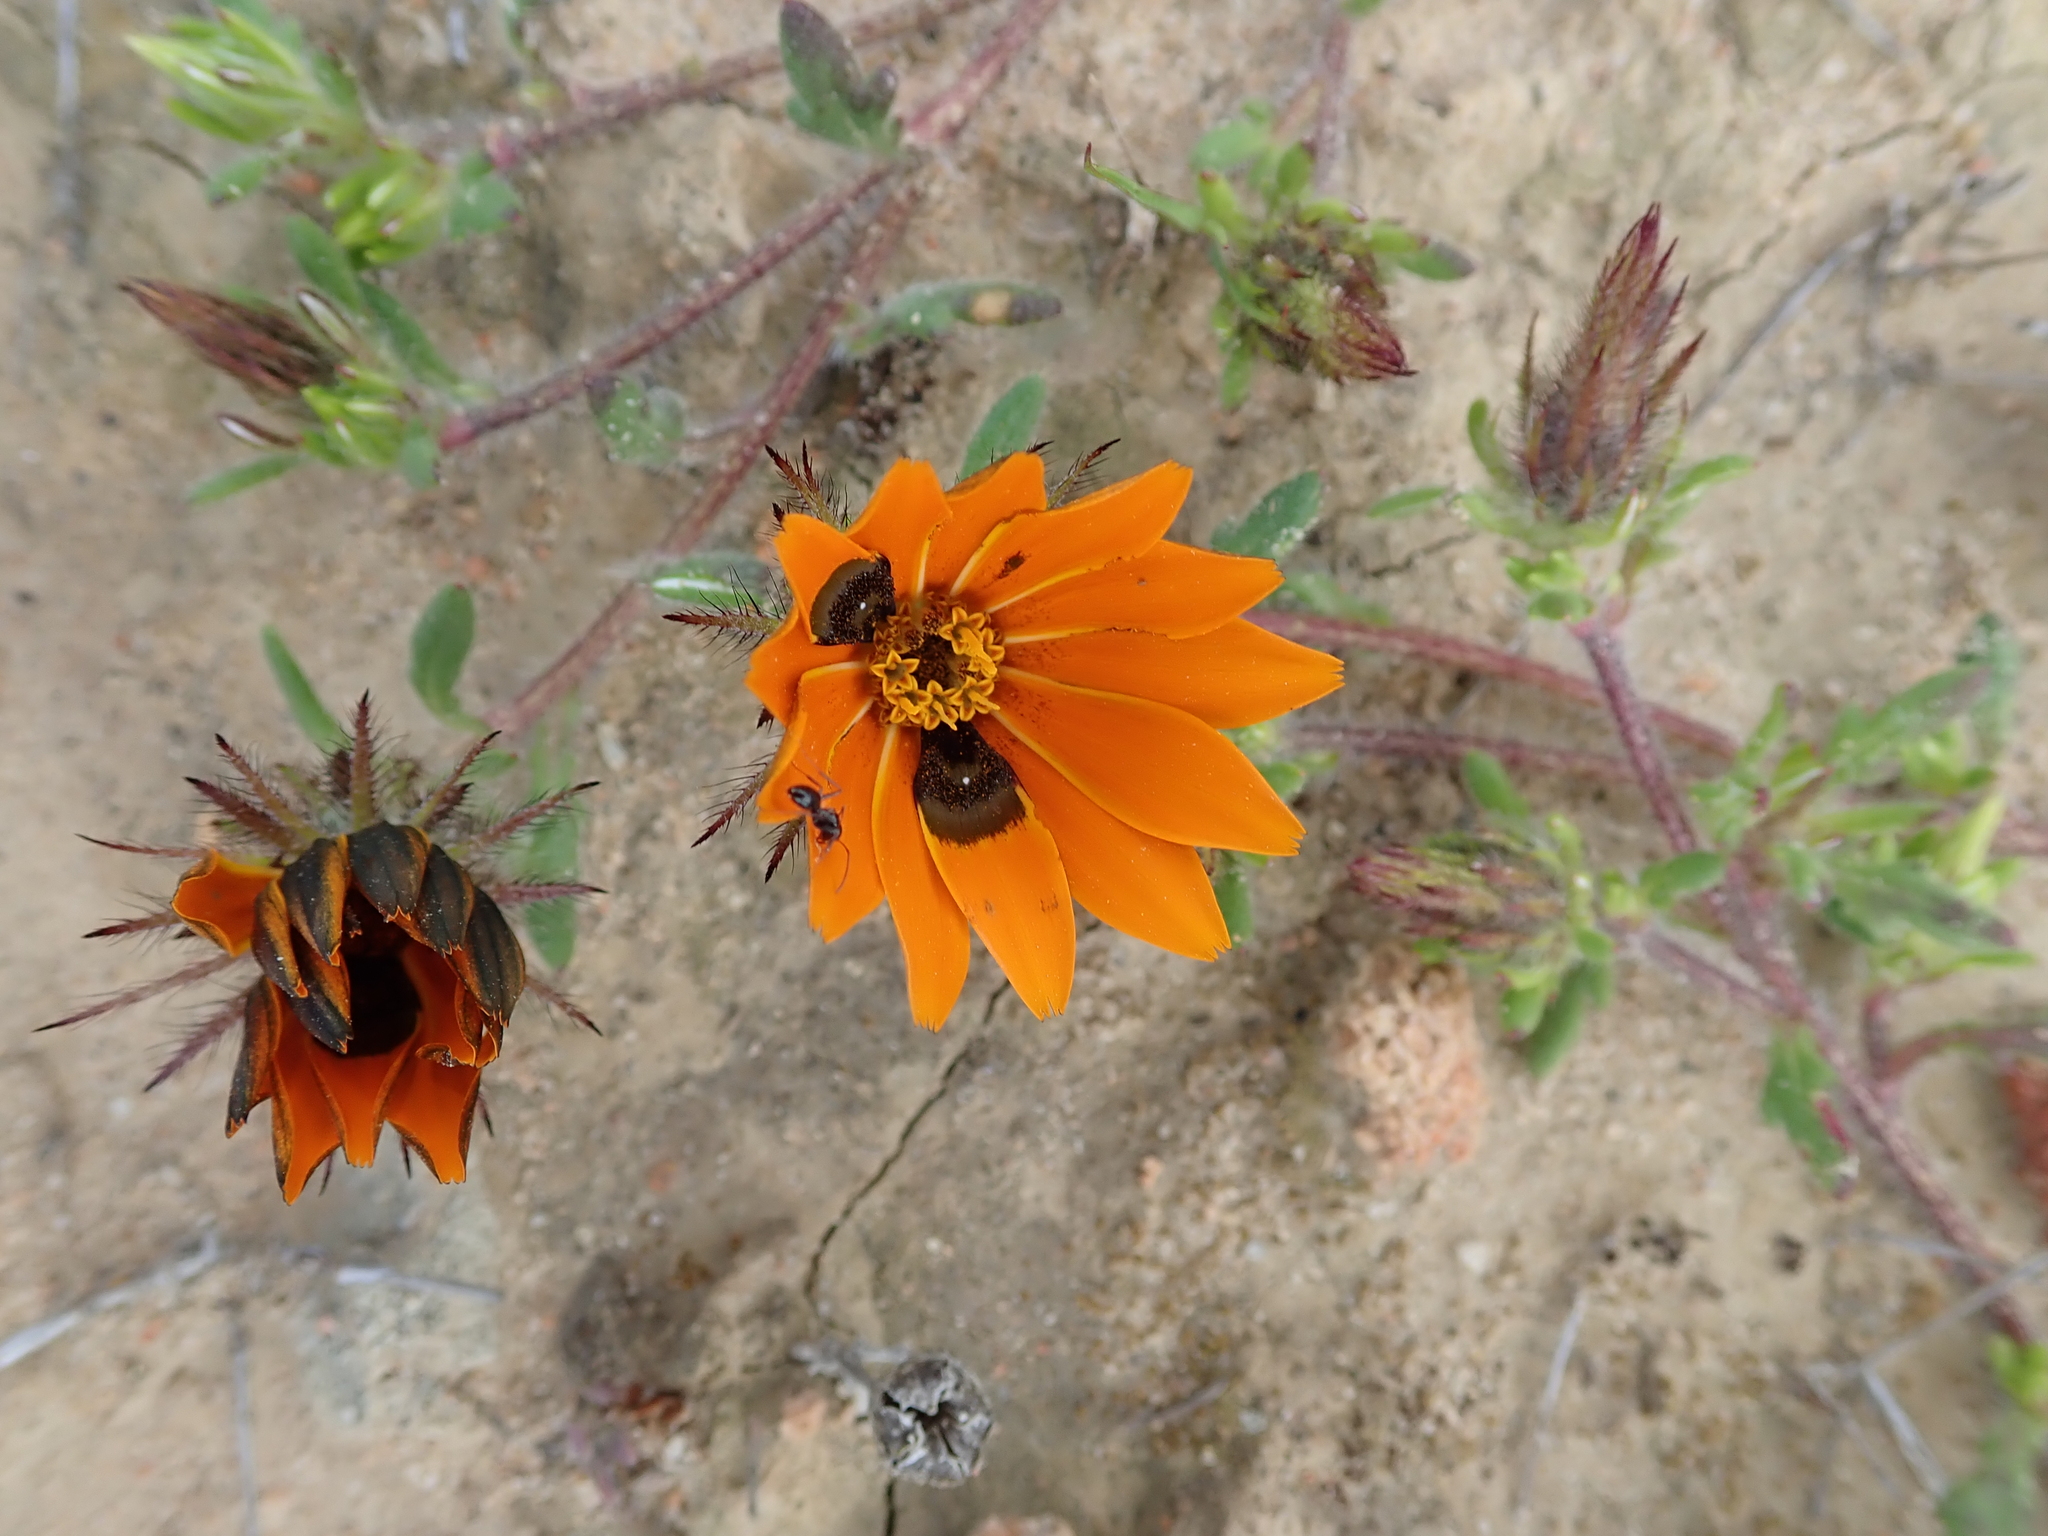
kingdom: Plantae
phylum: Tracheophyta
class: Magnoliopsida
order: Asterales
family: Asteraceae
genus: Gorteria
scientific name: Gorteria diffusa
